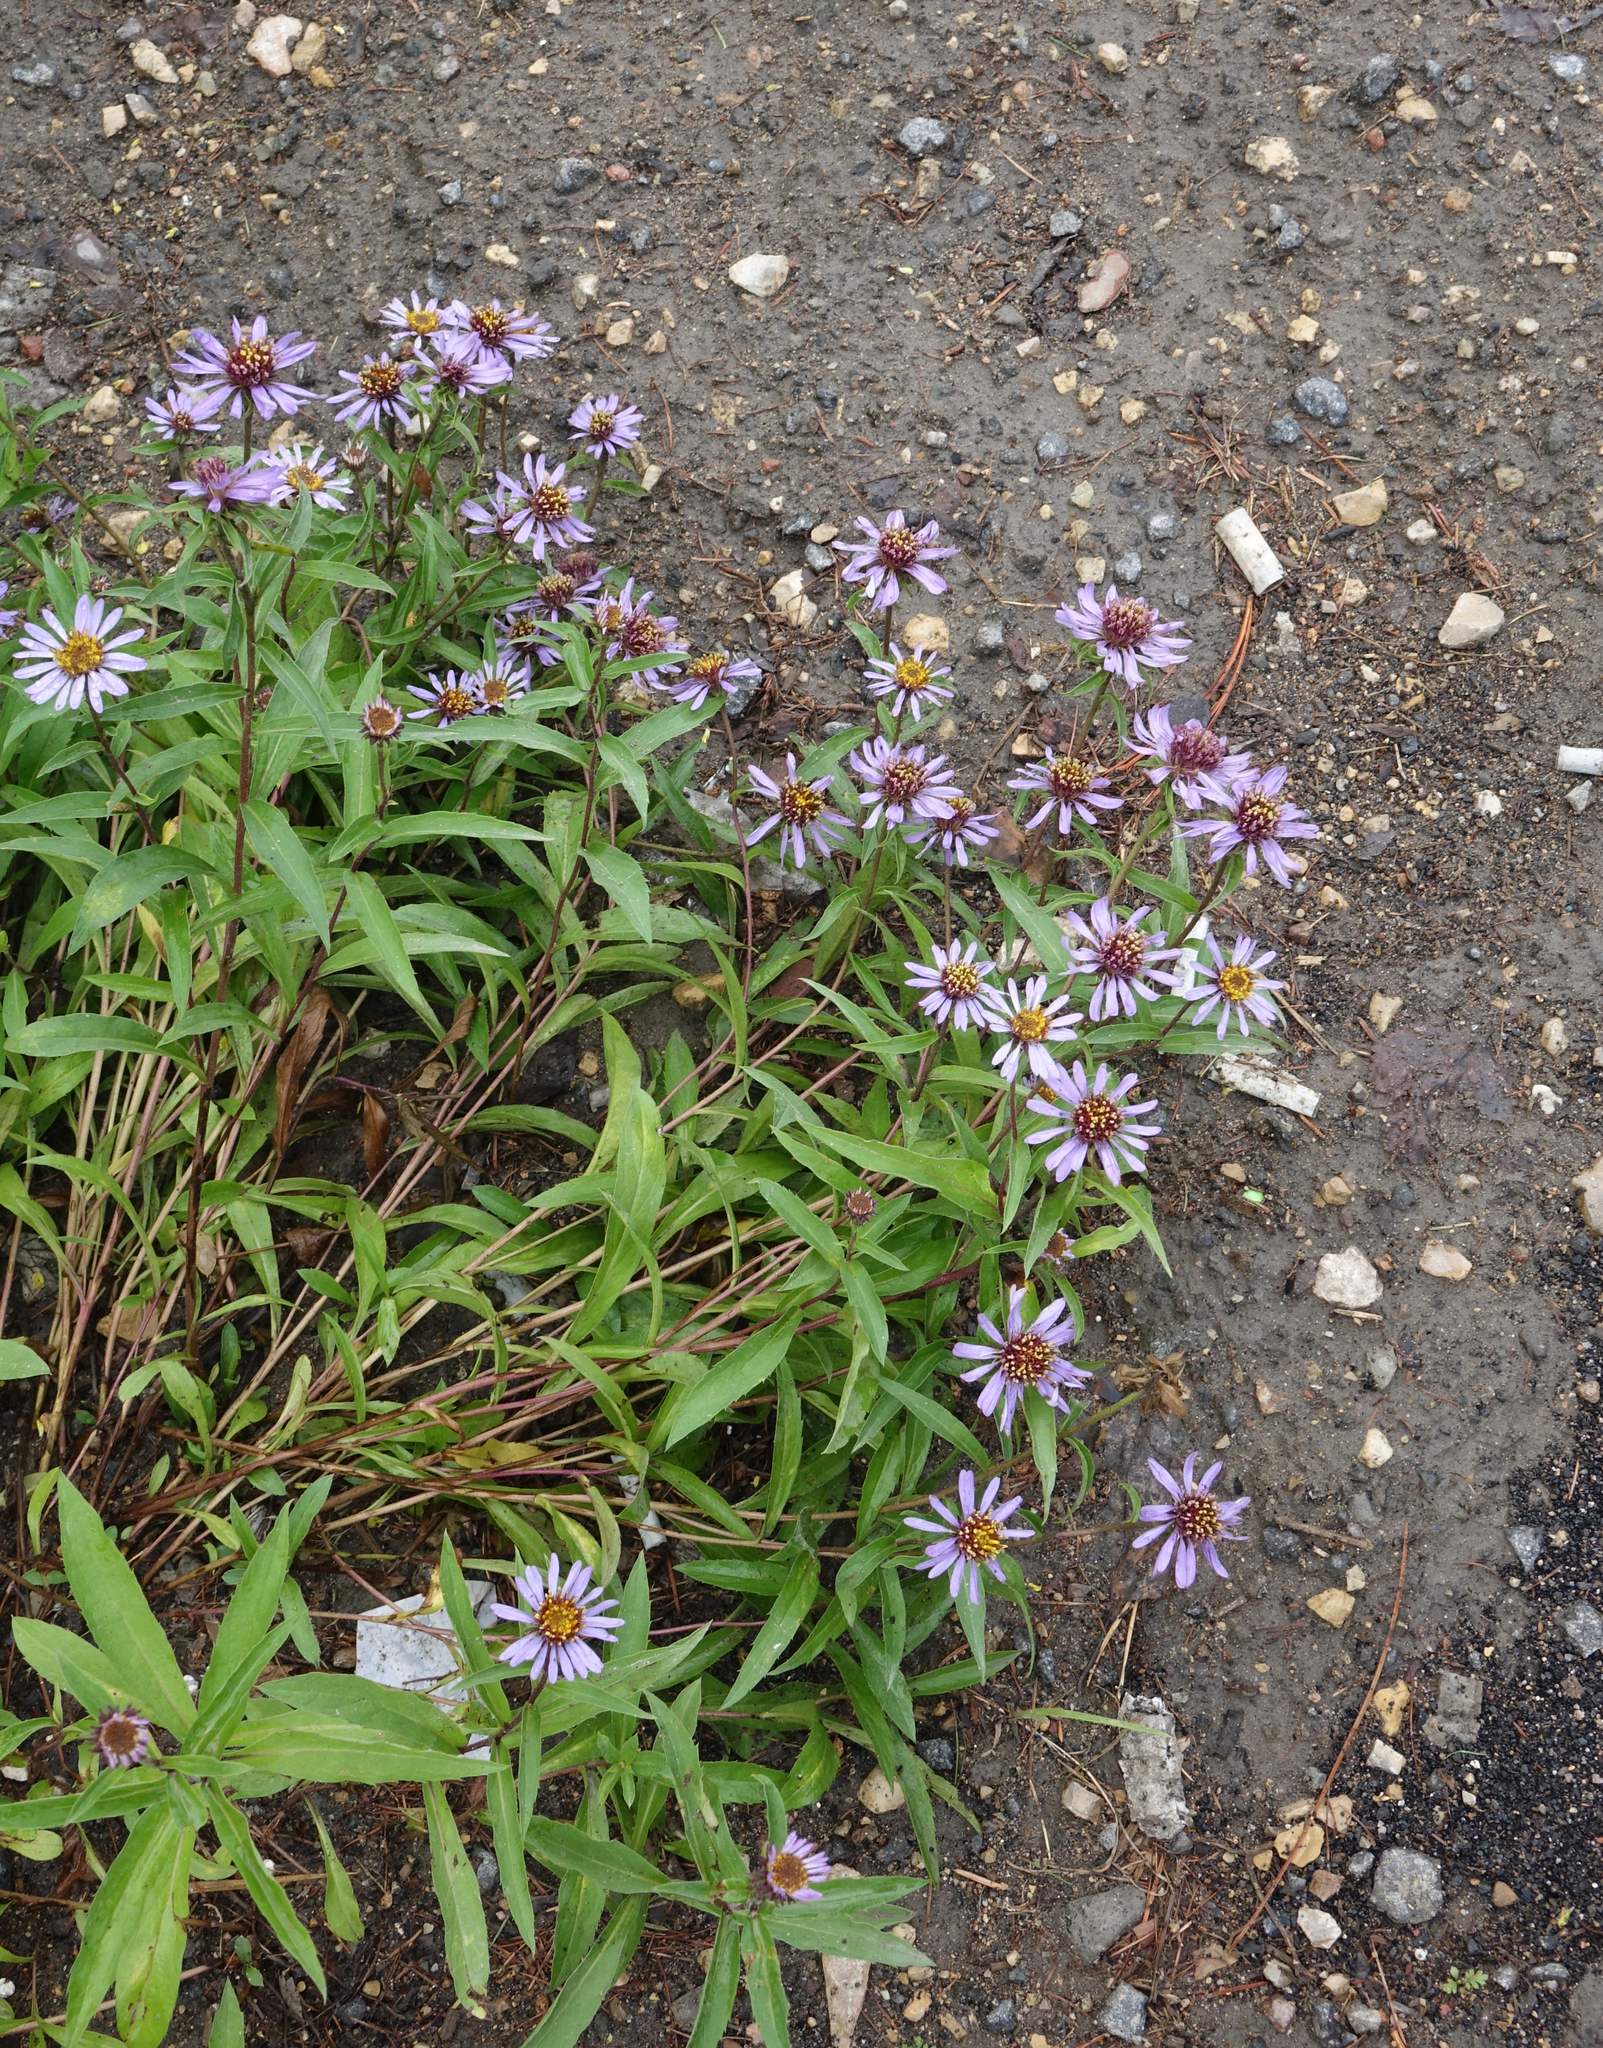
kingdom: Plantae
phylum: Tracheophyta
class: Magnoliopsida
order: Asterales
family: Asteraceae
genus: Eurybia
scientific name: Eurybia sibirica
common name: Arctic aster
